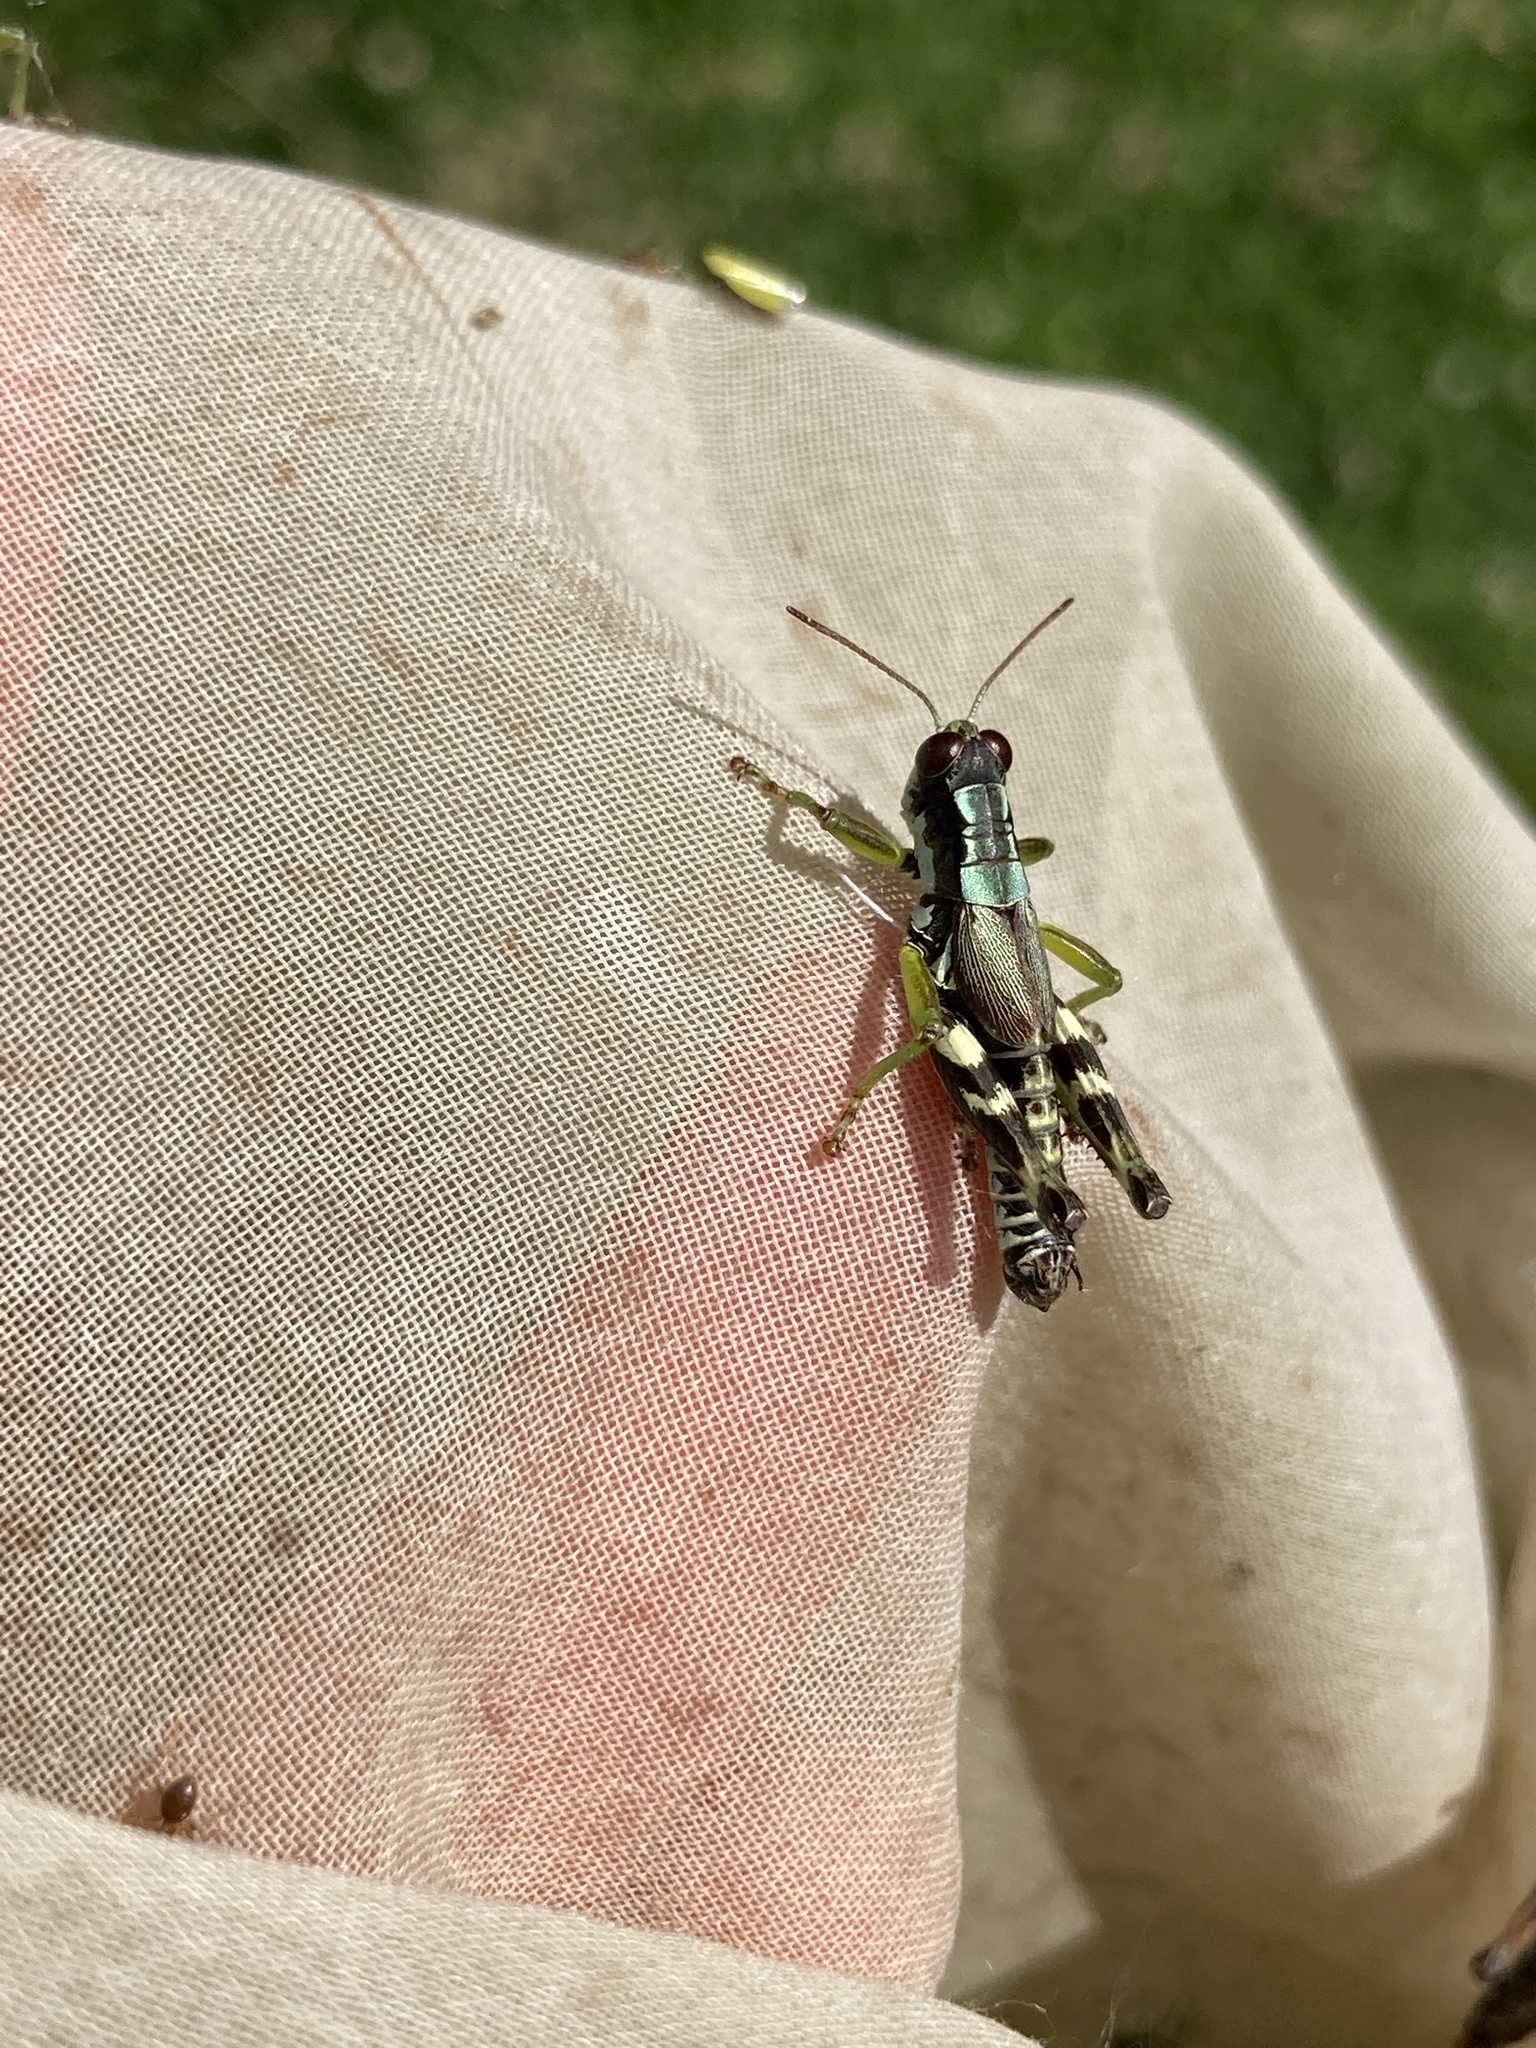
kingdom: Animalia
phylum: Arthropoda
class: Insecta
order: Orthoptera
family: Acrididae
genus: Melanoplus
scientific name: Melanoplus viridipes
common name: Green-legged locust
